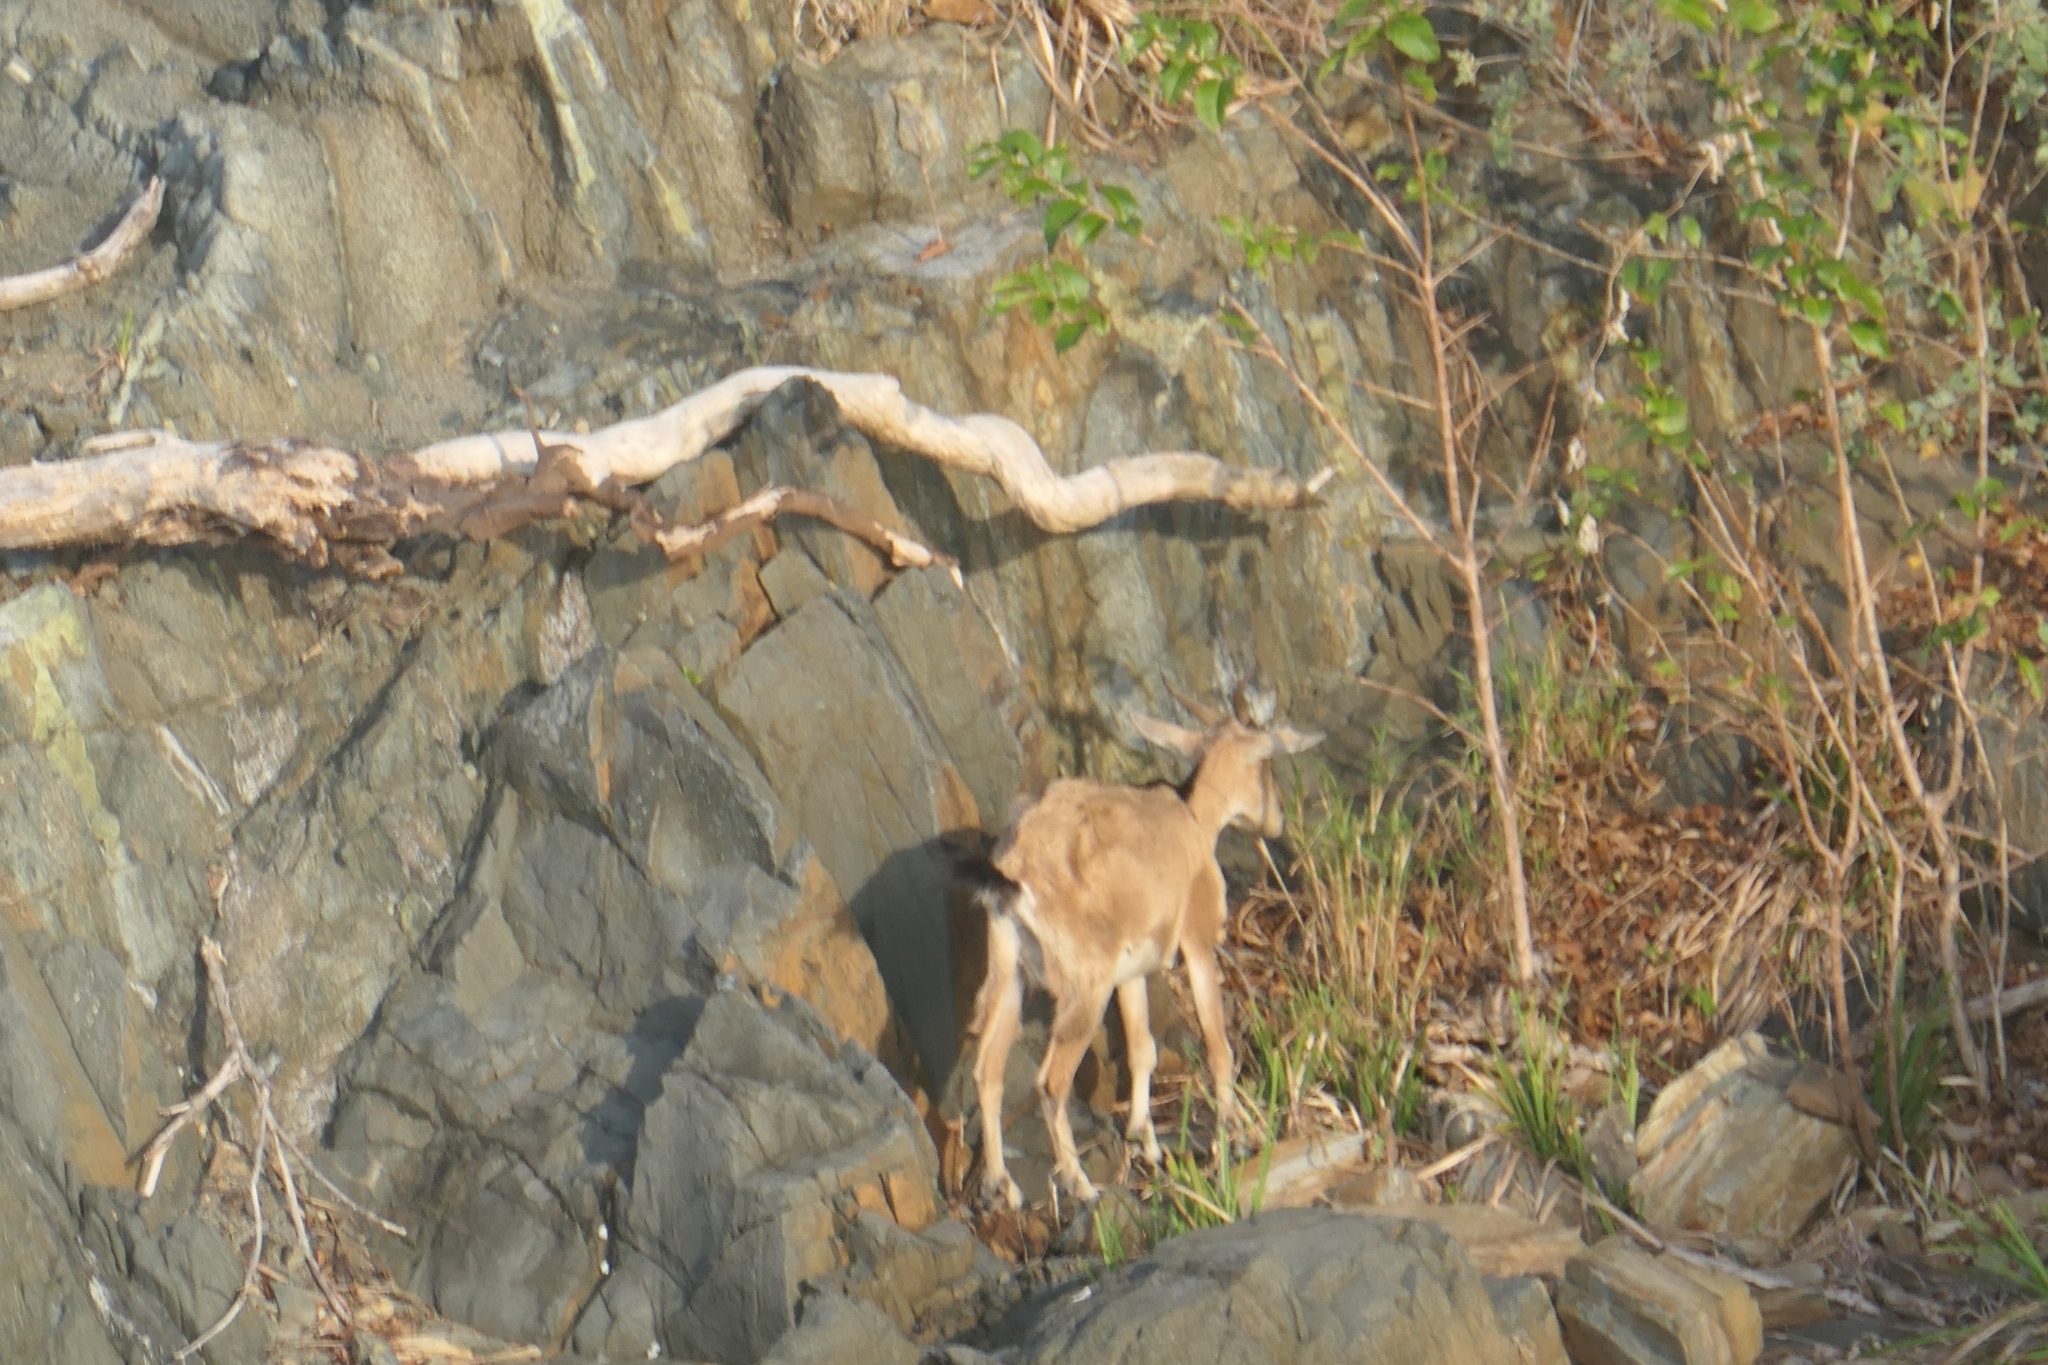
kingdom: Animalia
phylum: Chordata
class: Mammalia
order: Artiodactyla
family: Bovidae
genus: Capra
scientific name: Capra hircus
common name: Domestic goat
